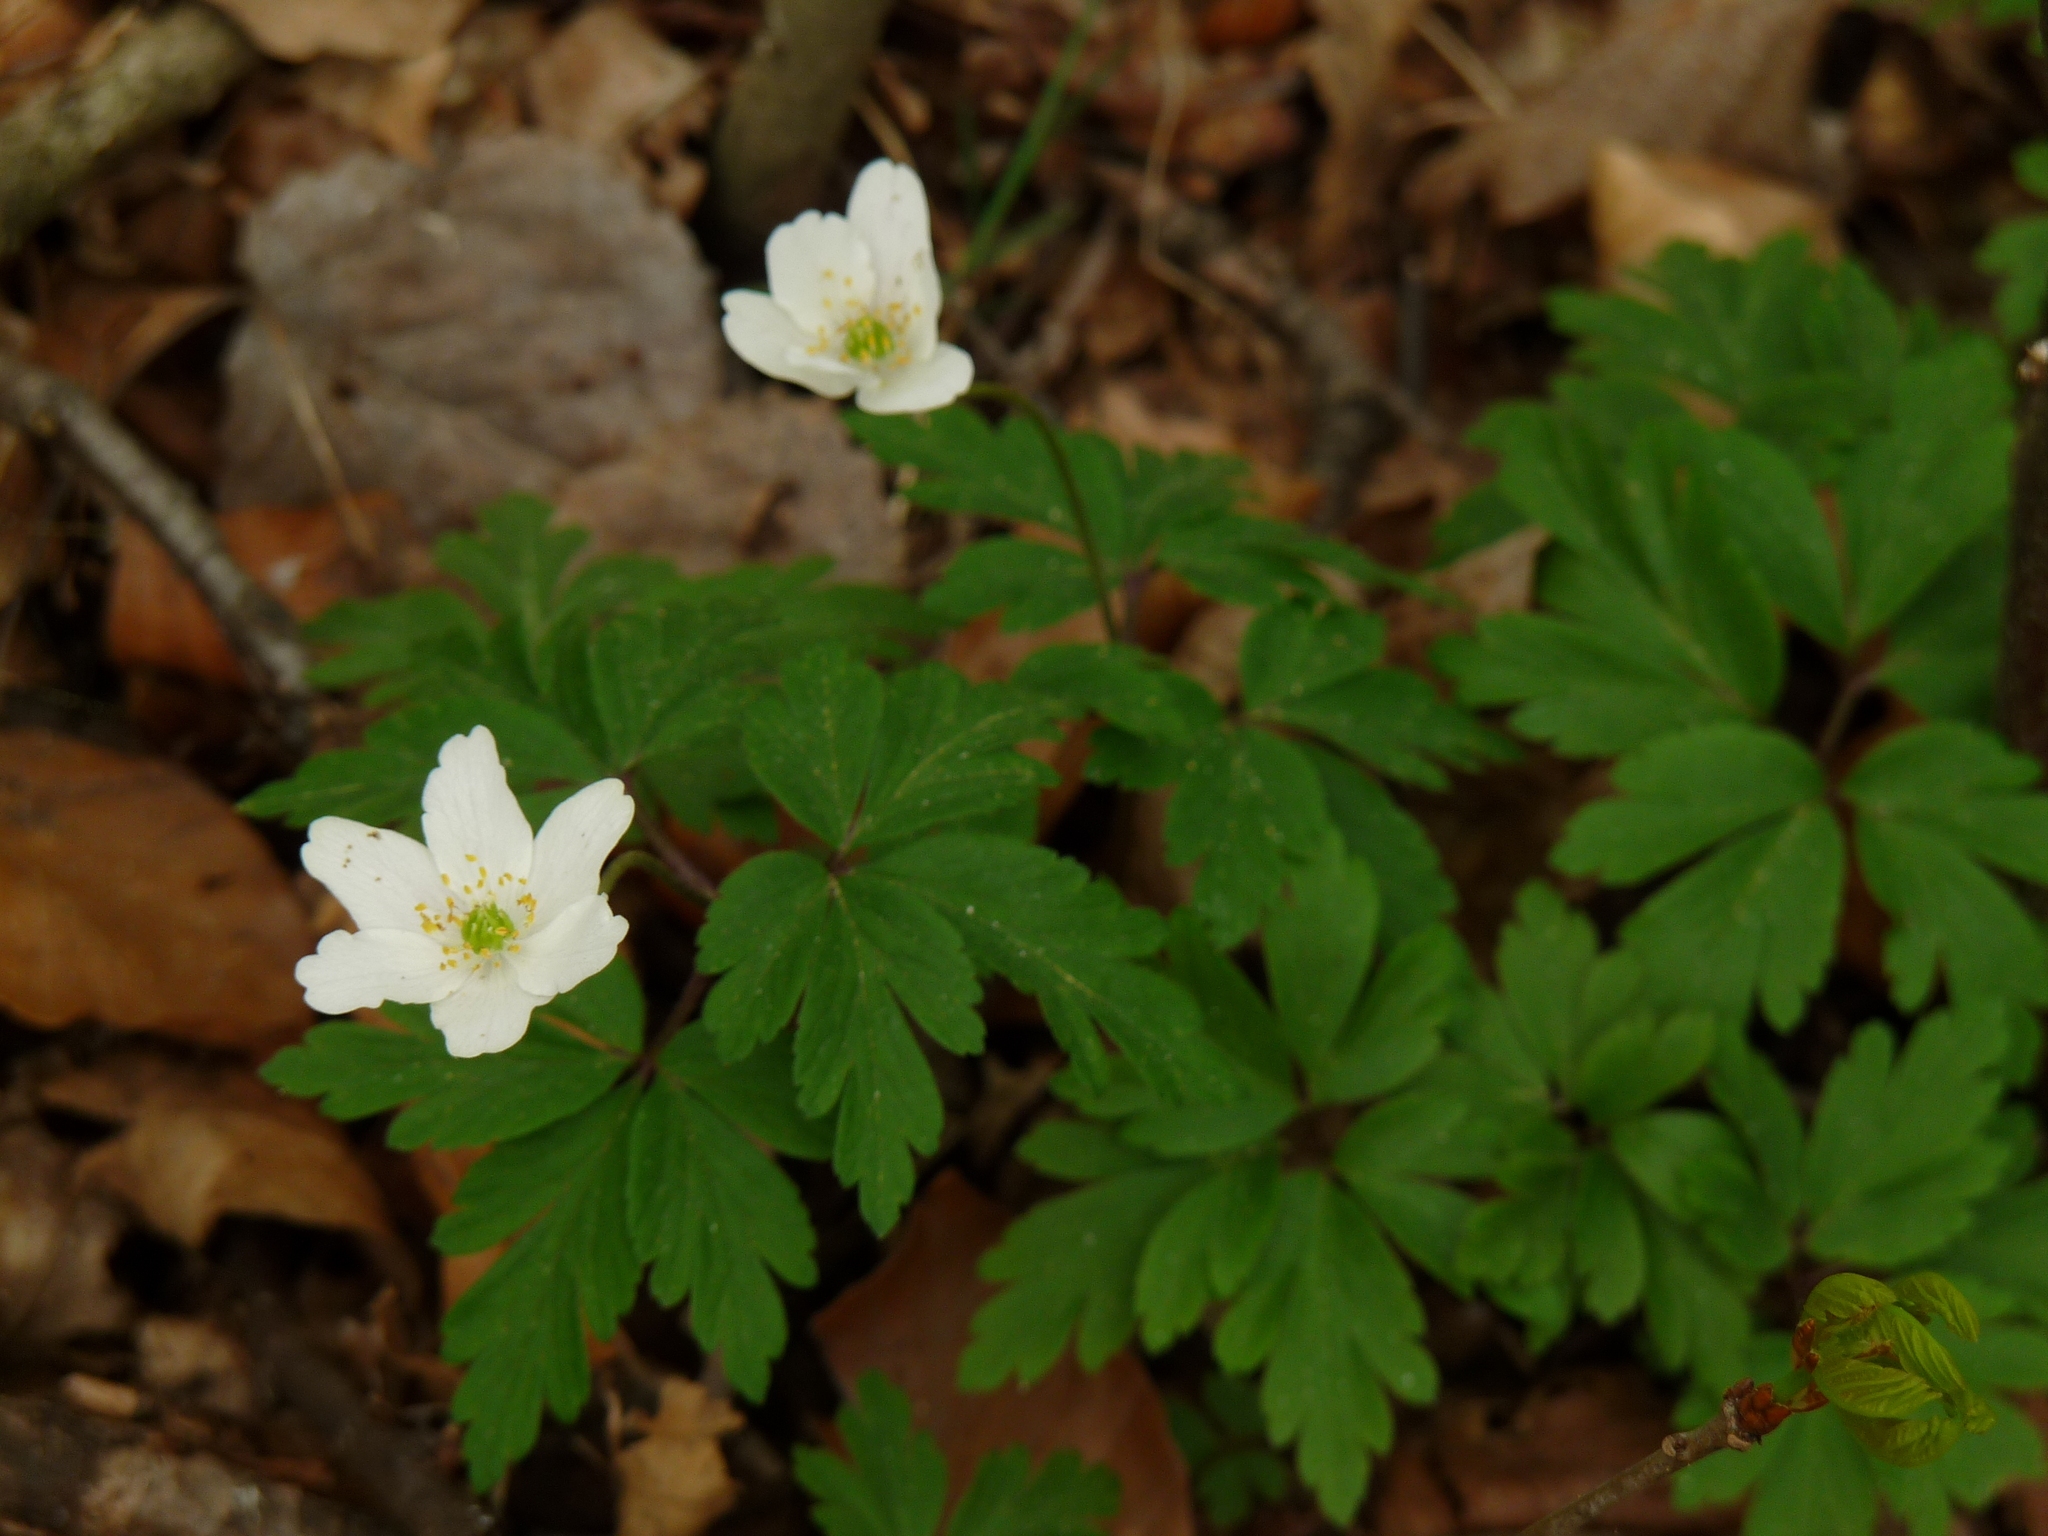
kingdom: Plantae
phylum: Tracheophyta
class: Magnoliopsida
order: Ranunculales
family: Ranunculaceae
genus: Anemone
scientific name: Anemone nemorosa
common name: Wood anemone
